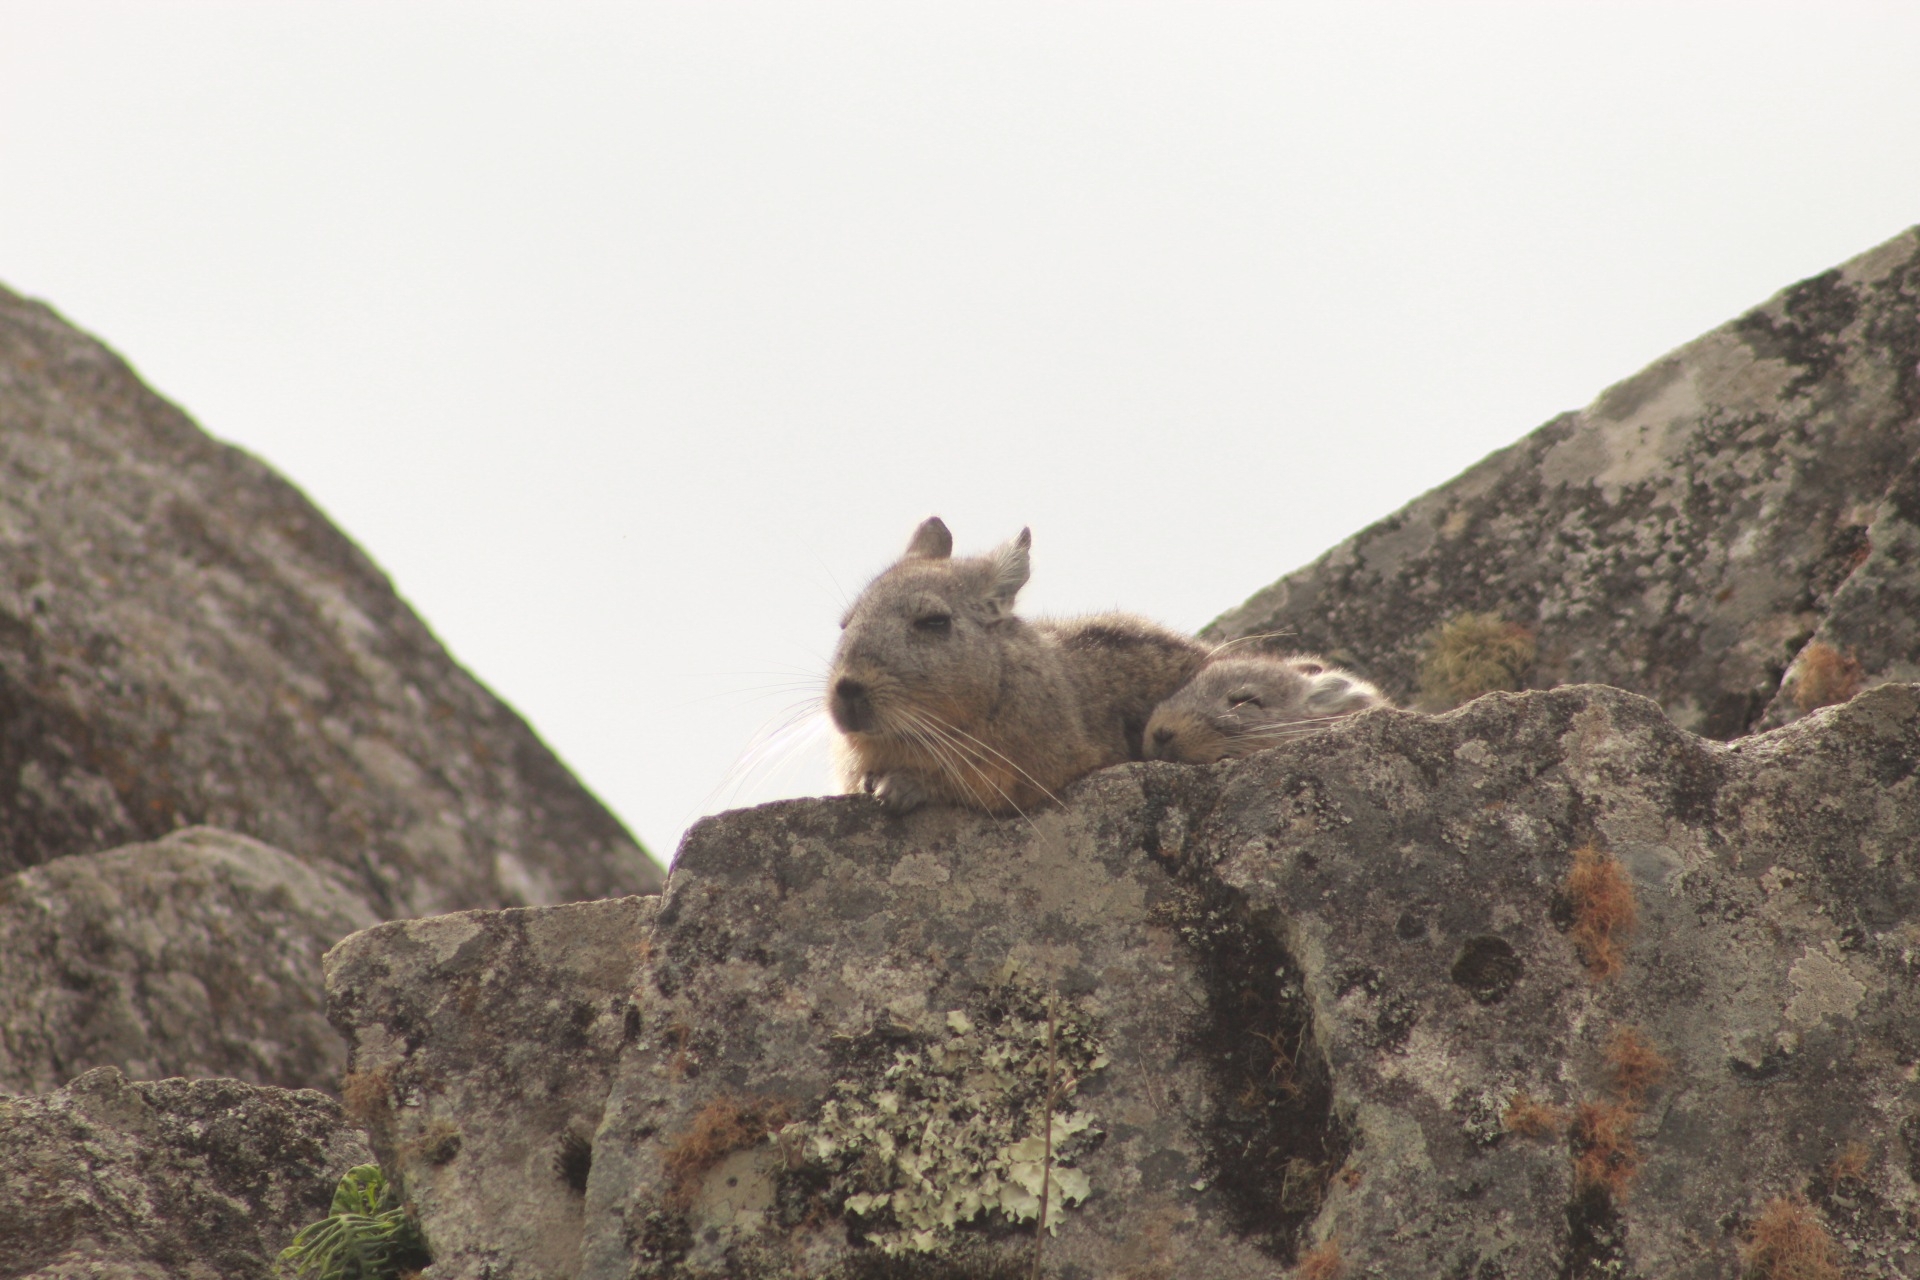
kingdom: Animalia
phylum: Chordata
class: Mammalia
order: Rodentia
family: Chinchillidae
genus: Lagidium
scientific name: Lagidium viscacia
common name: Southern viscacha
